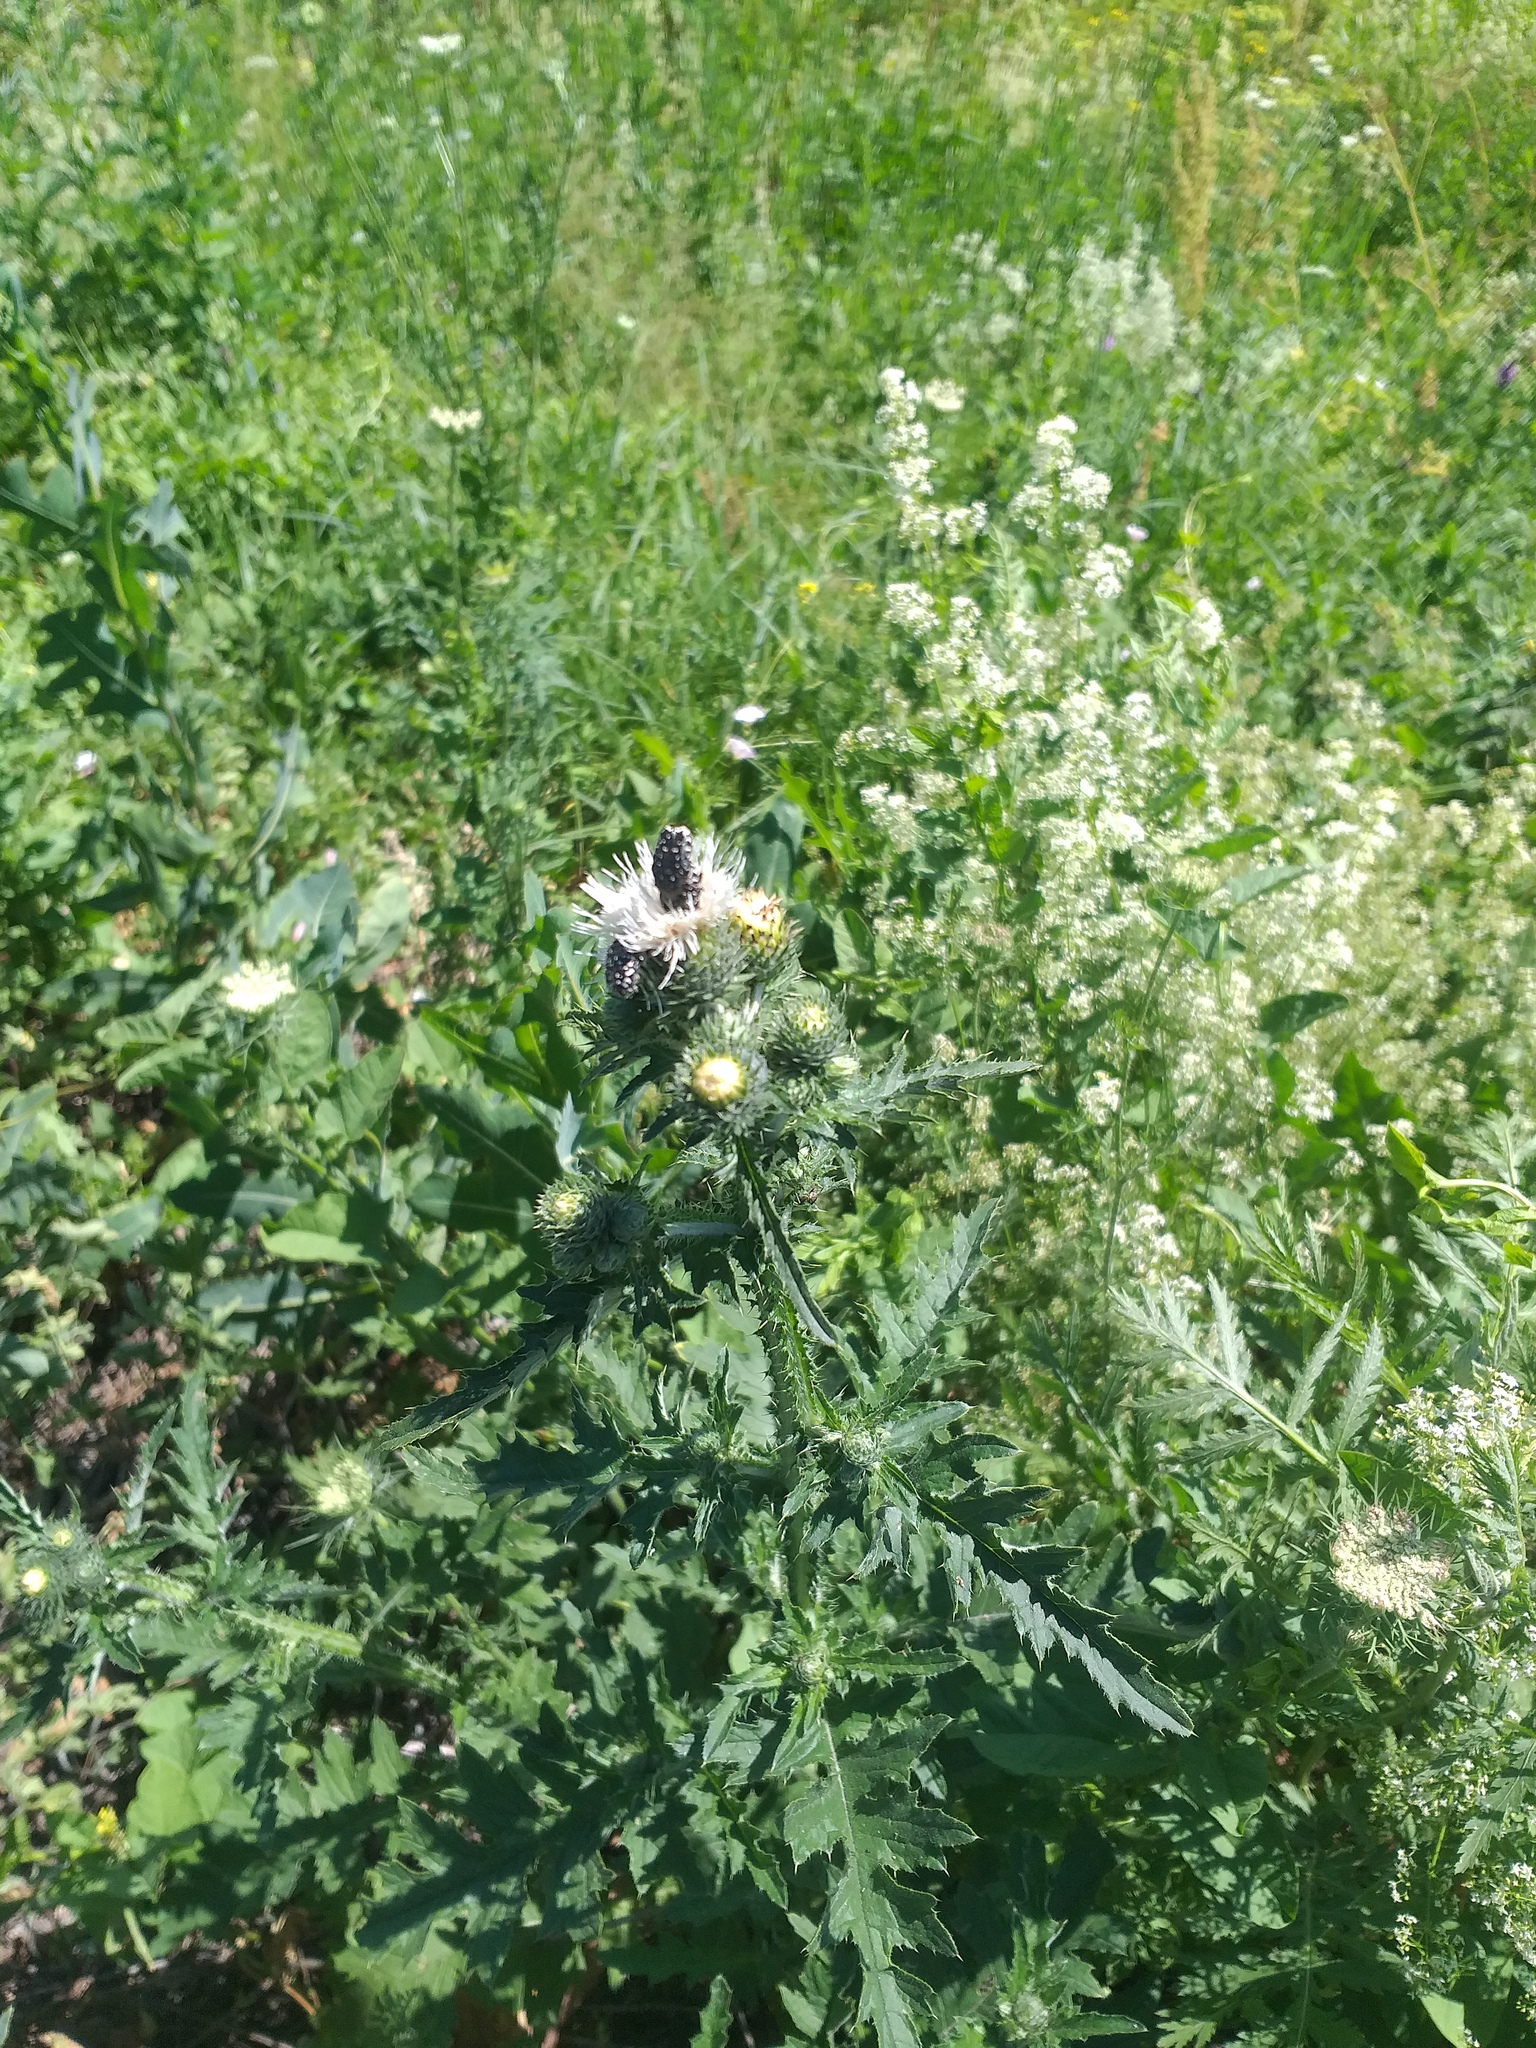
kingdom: Plantae
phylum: Tracheophyta
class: Magnoliopsida
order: Asterales
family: Asteraceae
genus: Carduus
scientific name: Carduus crispus
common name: Welted thistle
